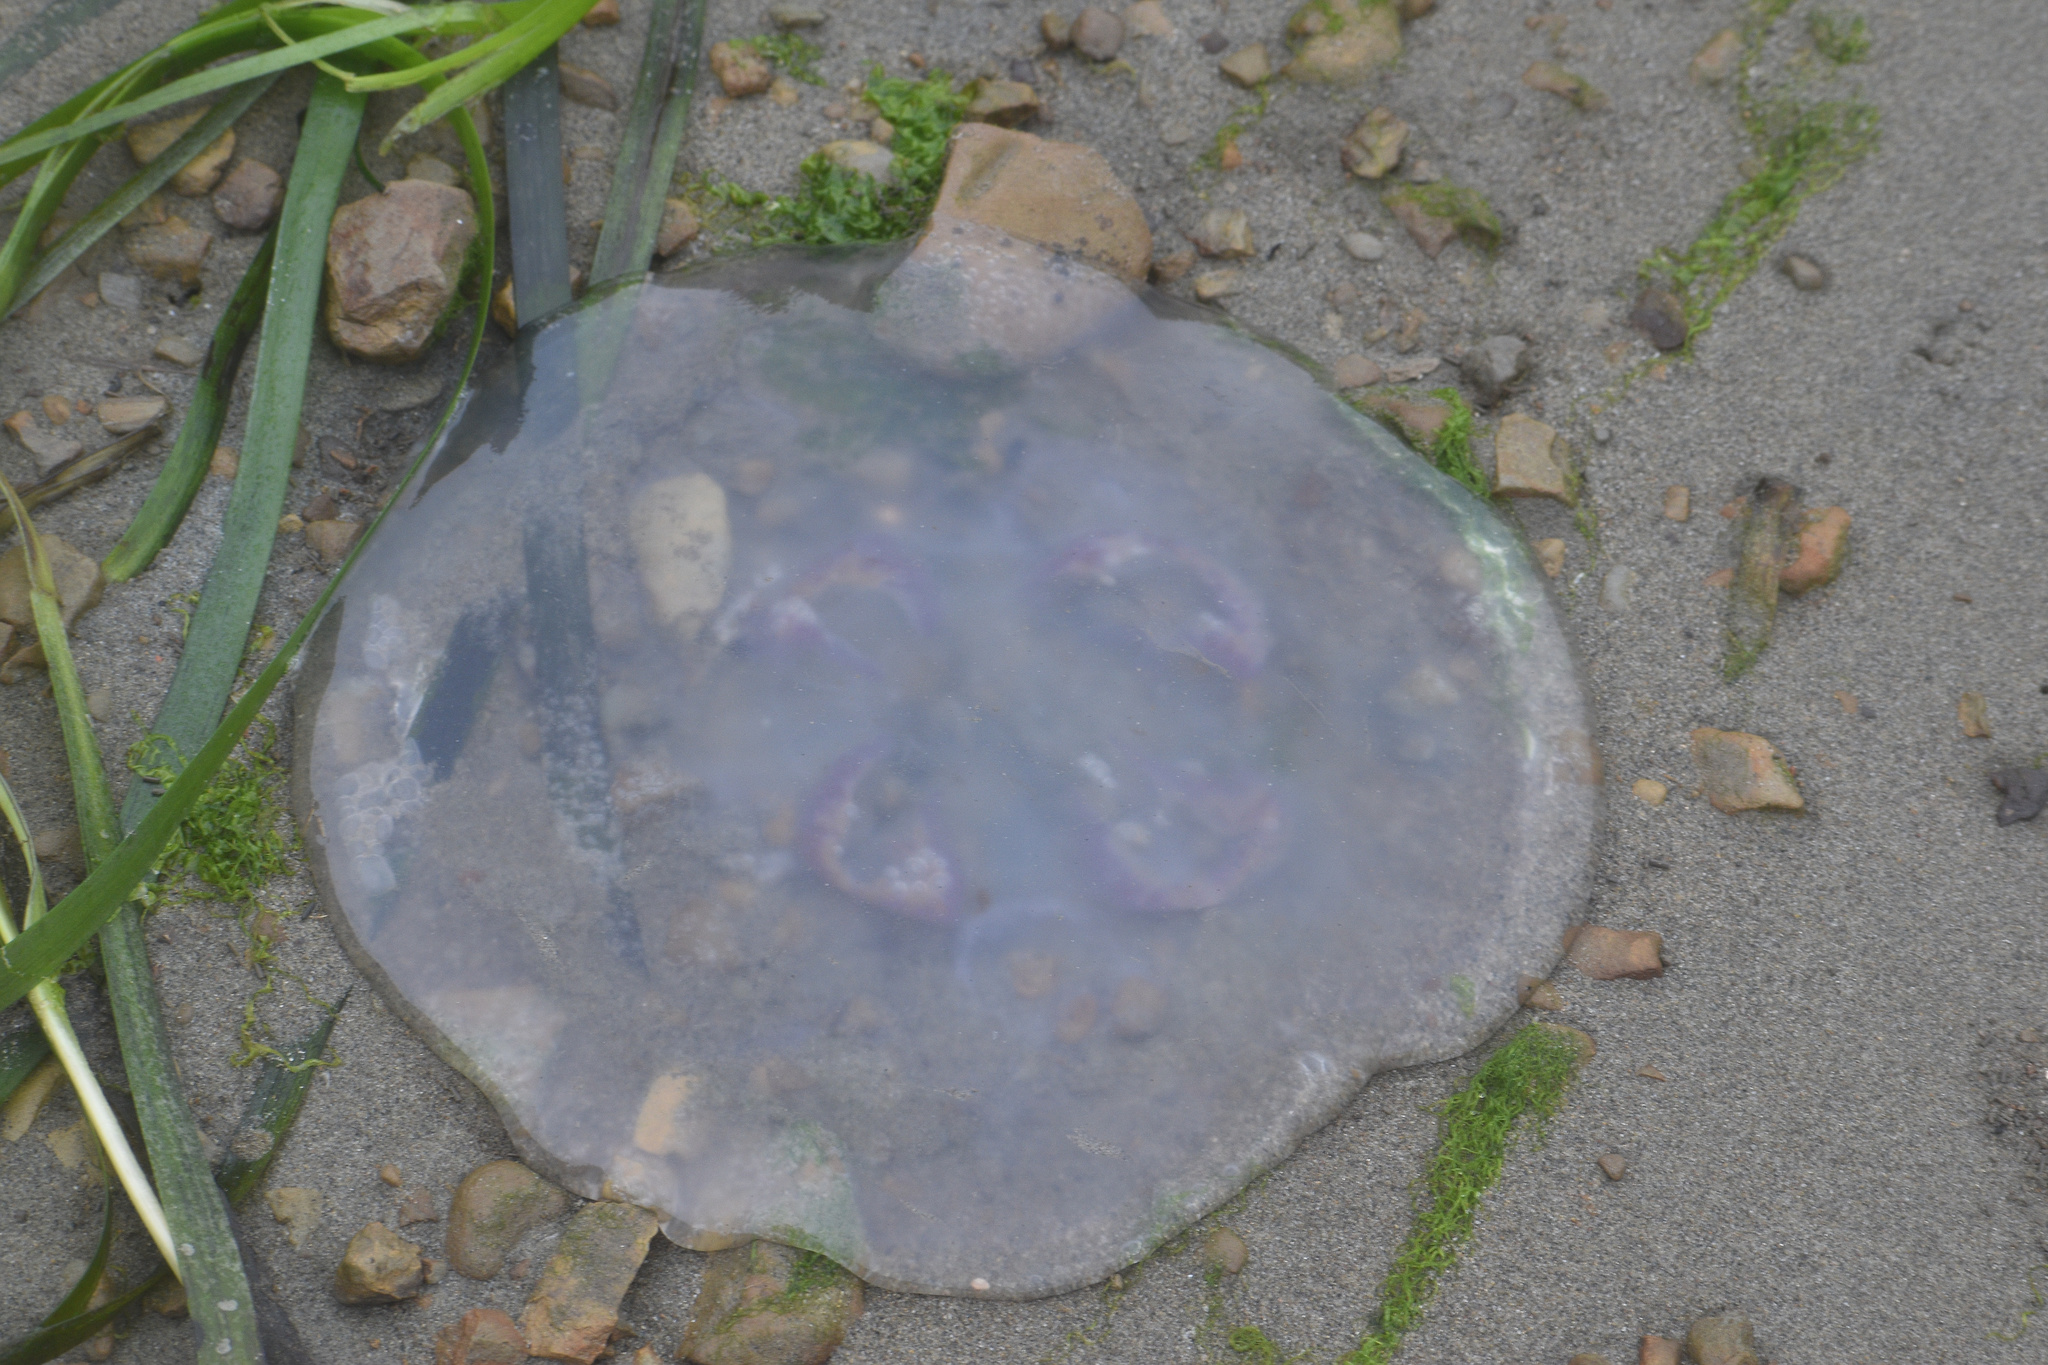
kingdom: Animalia
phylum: Cnidaria
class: Scyphozoa
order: Semaeostomeae
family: Ulmaridae
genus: Aurelia
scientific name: Aurelia labiata
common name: Pacific moon jelly
